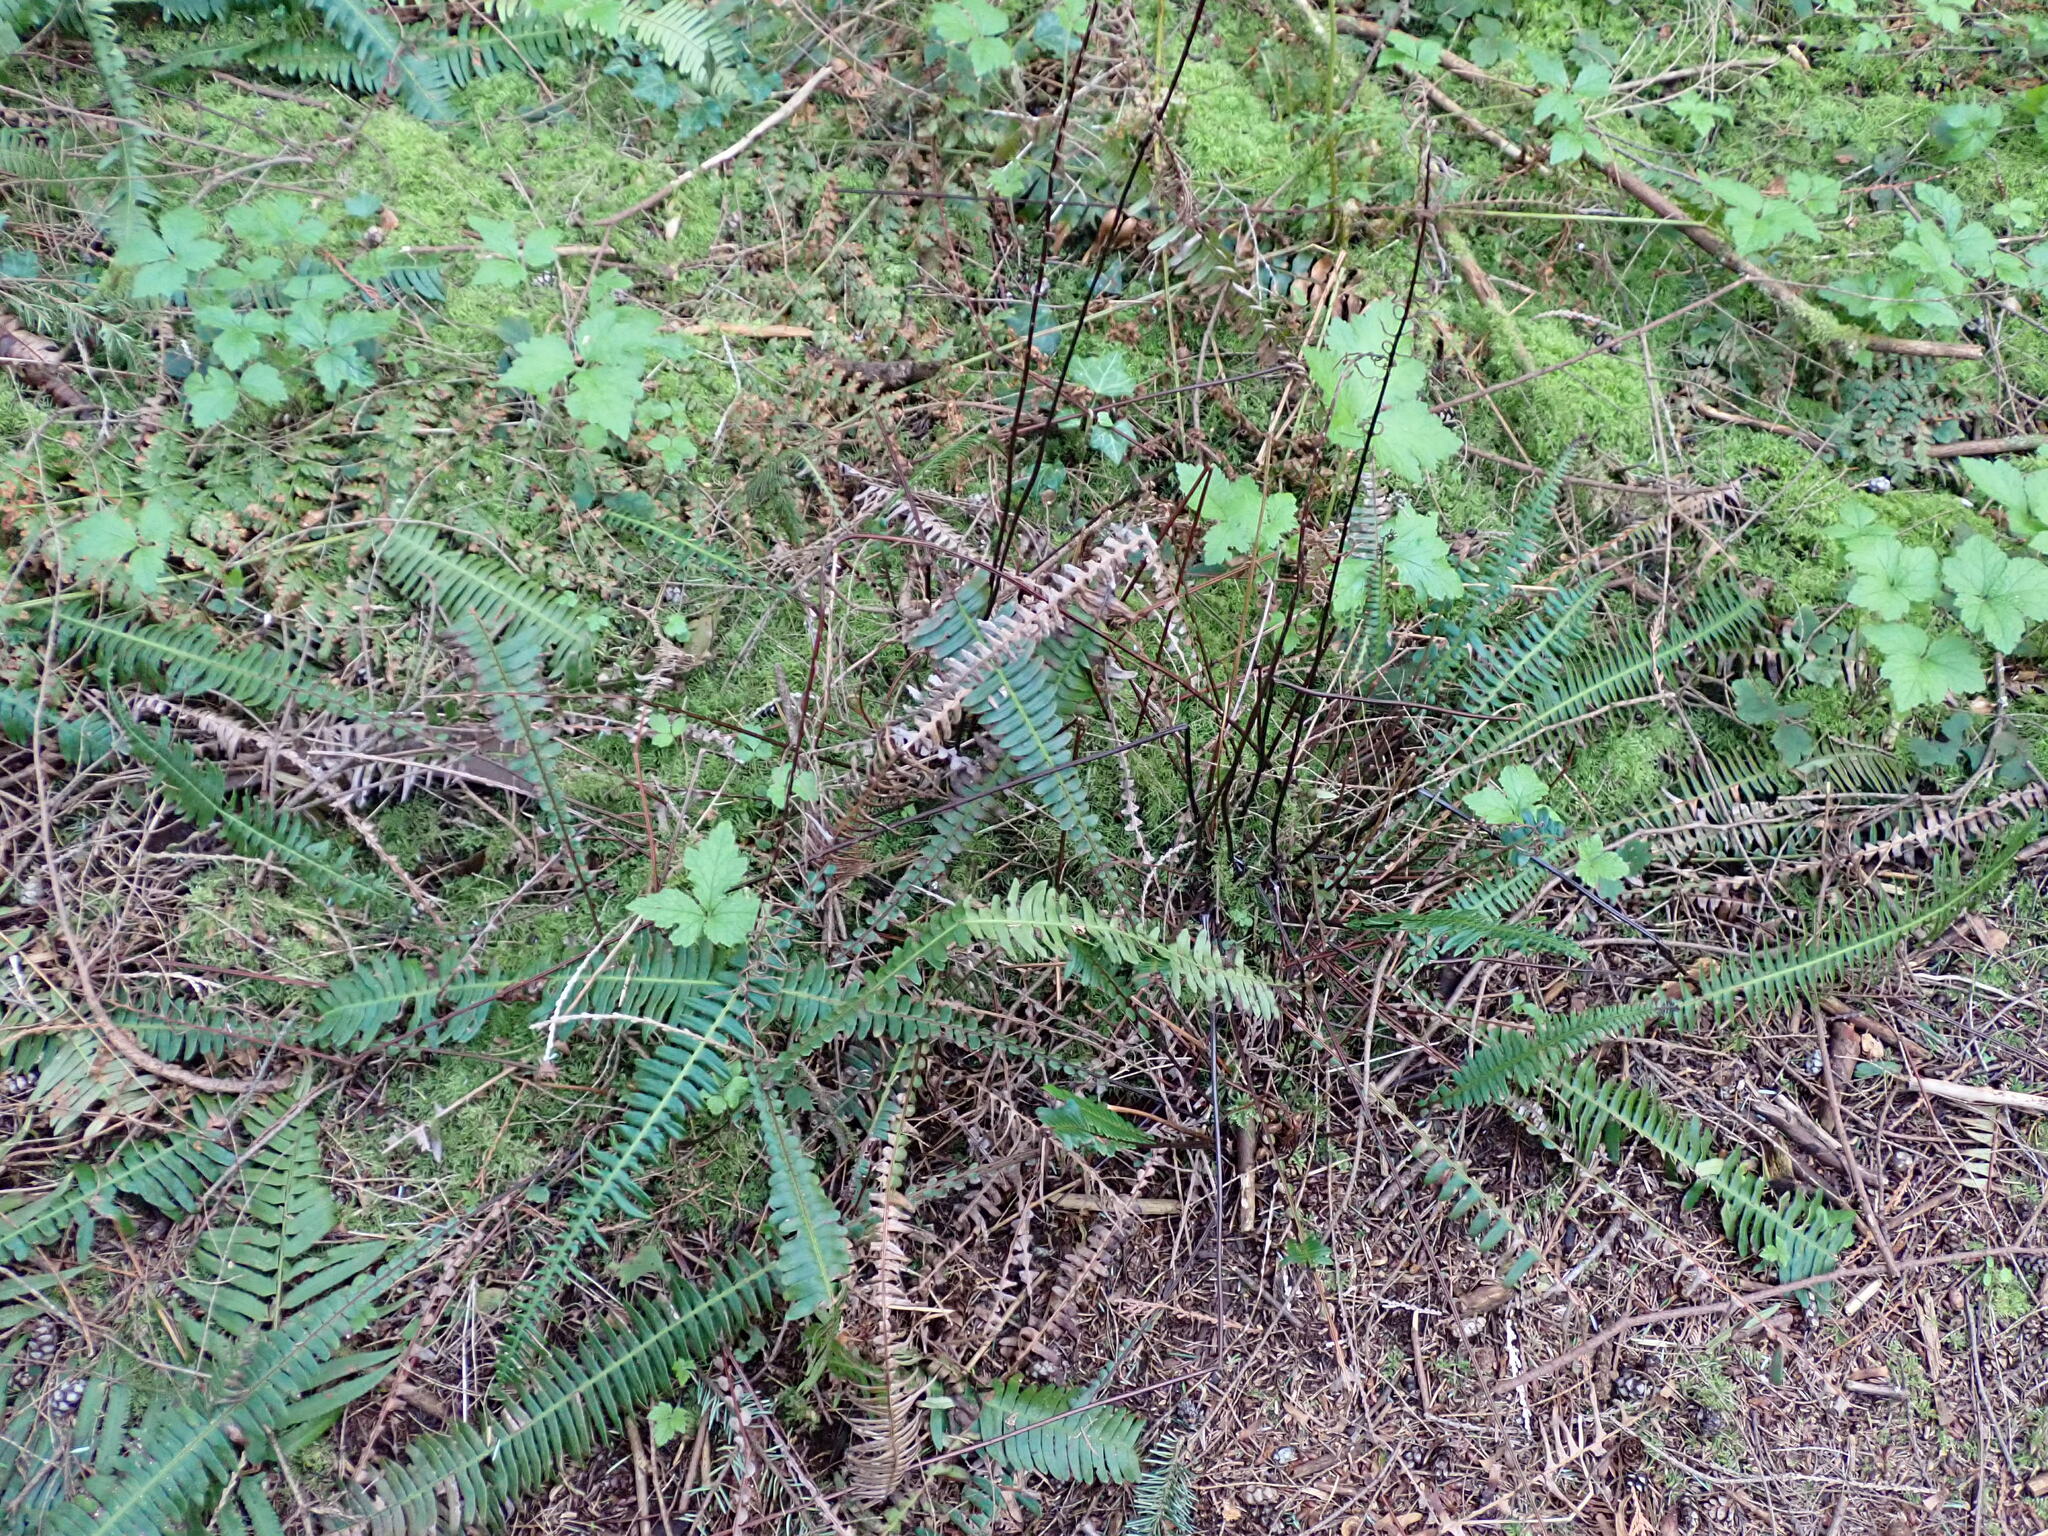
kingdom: Plantae
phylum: Tracheophyta
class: Polypodiopsida
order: Polypodiales
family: Blechnaceae
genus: Struthiopteris
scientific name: Struthiopteris spicant
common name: Deer fern
